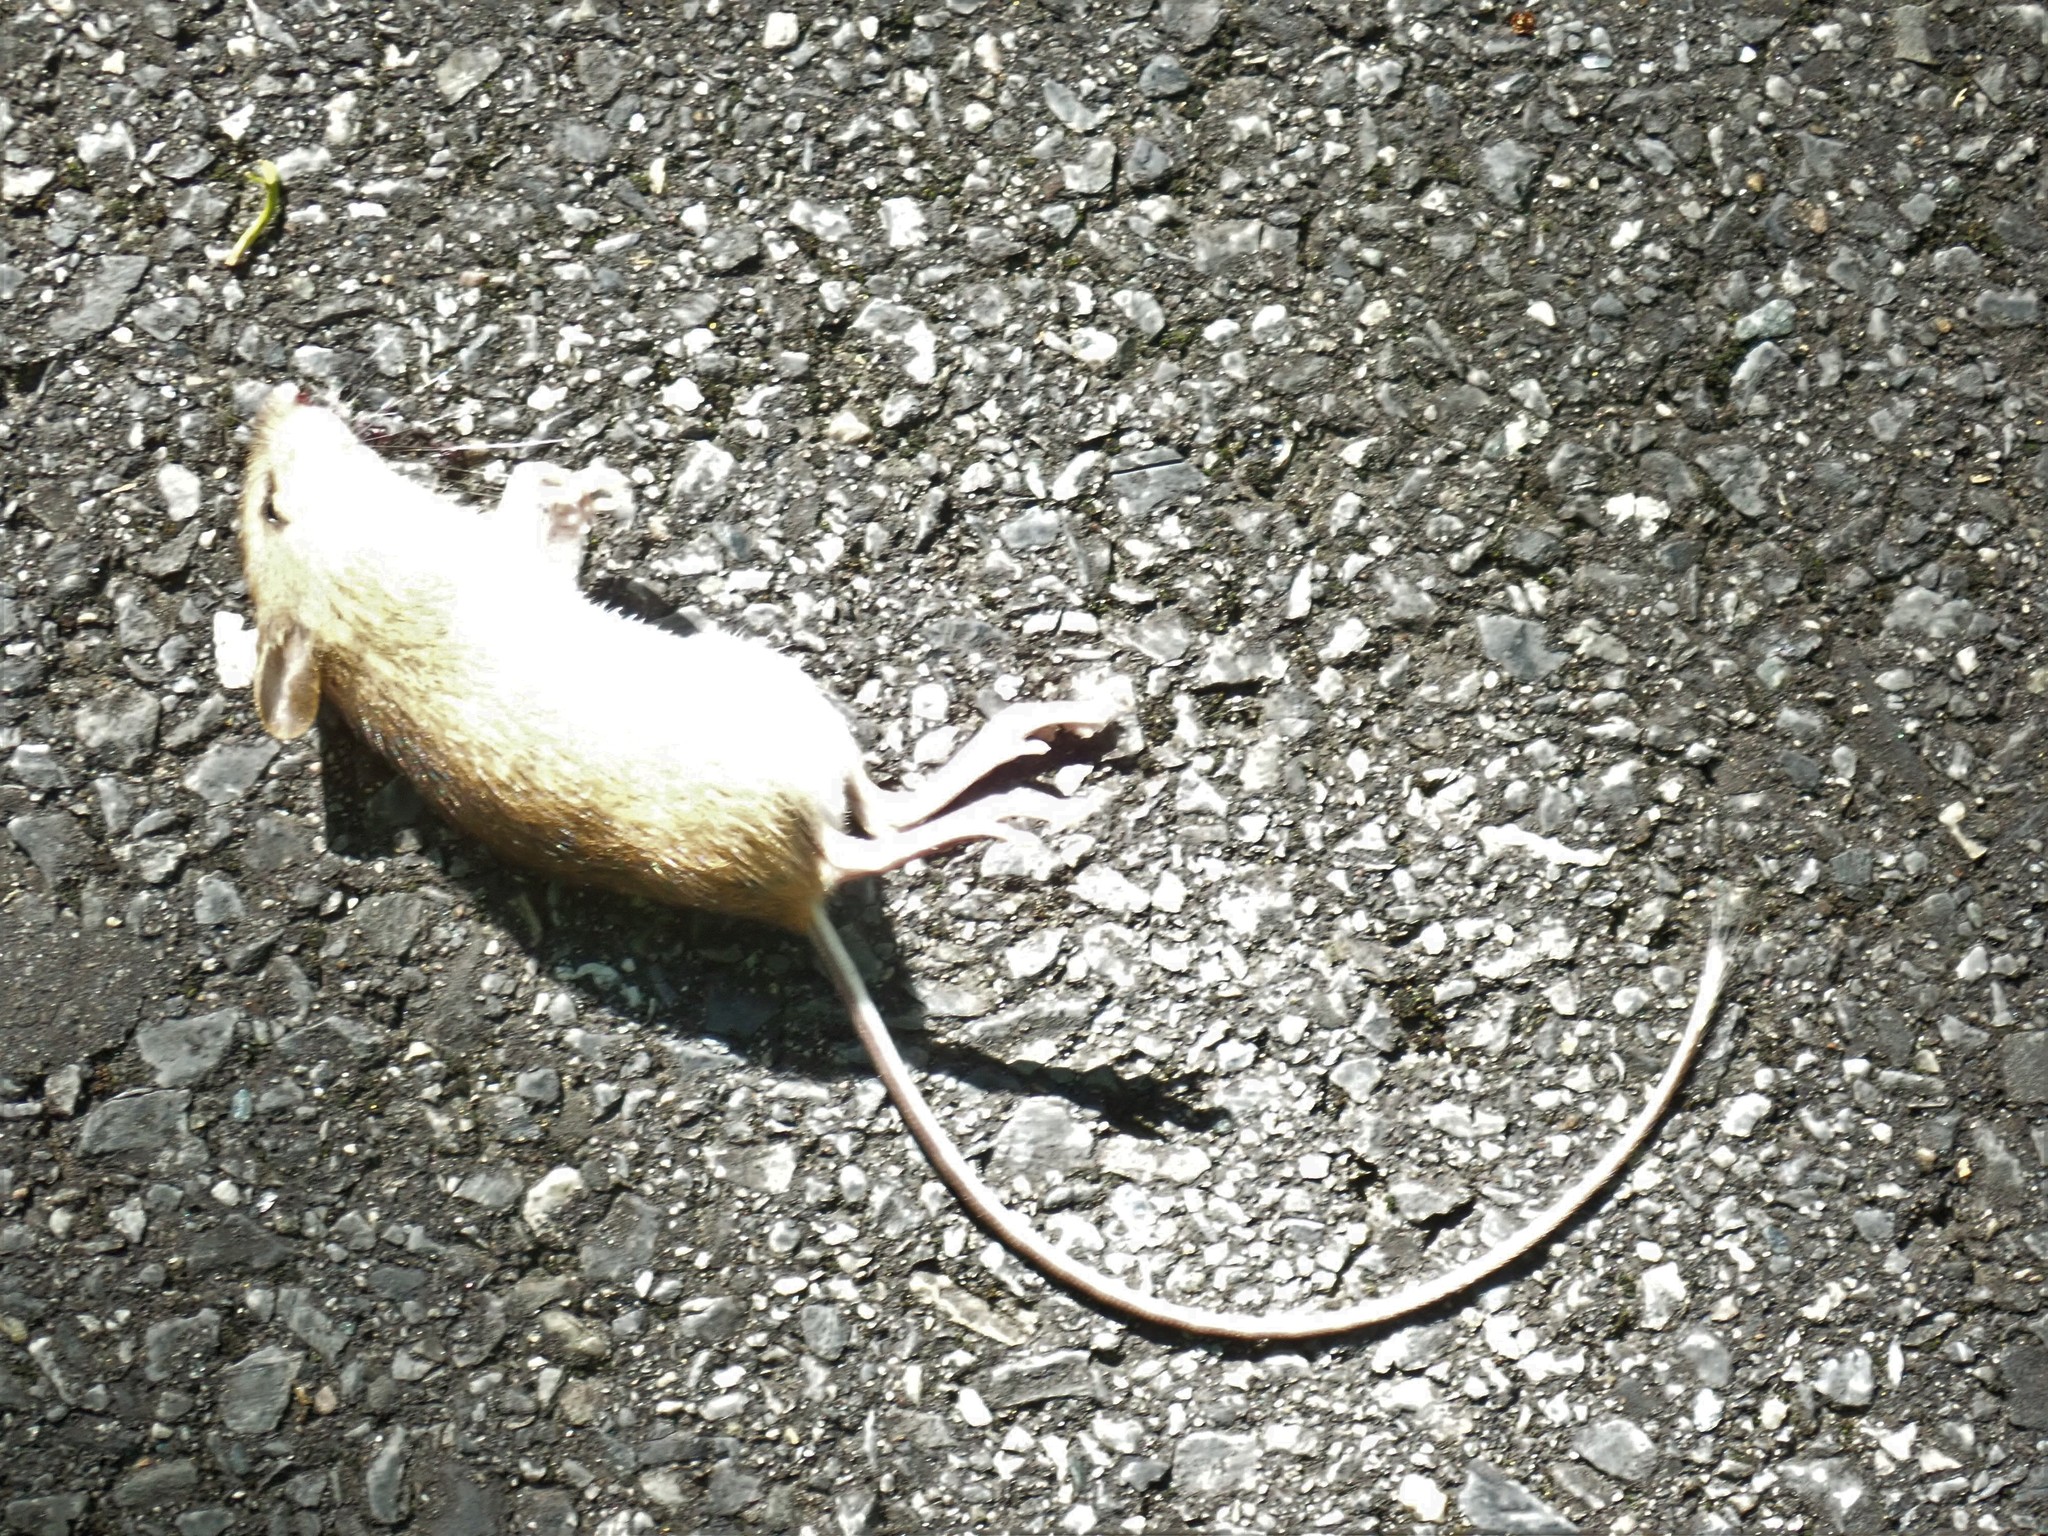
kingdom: Animalia
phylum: Chordata
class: Mammalia
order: Rodentia
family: Dipodidae
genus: Napaeozapus
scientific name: Napaeozapus insignis
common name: Woodland jumping mouse
